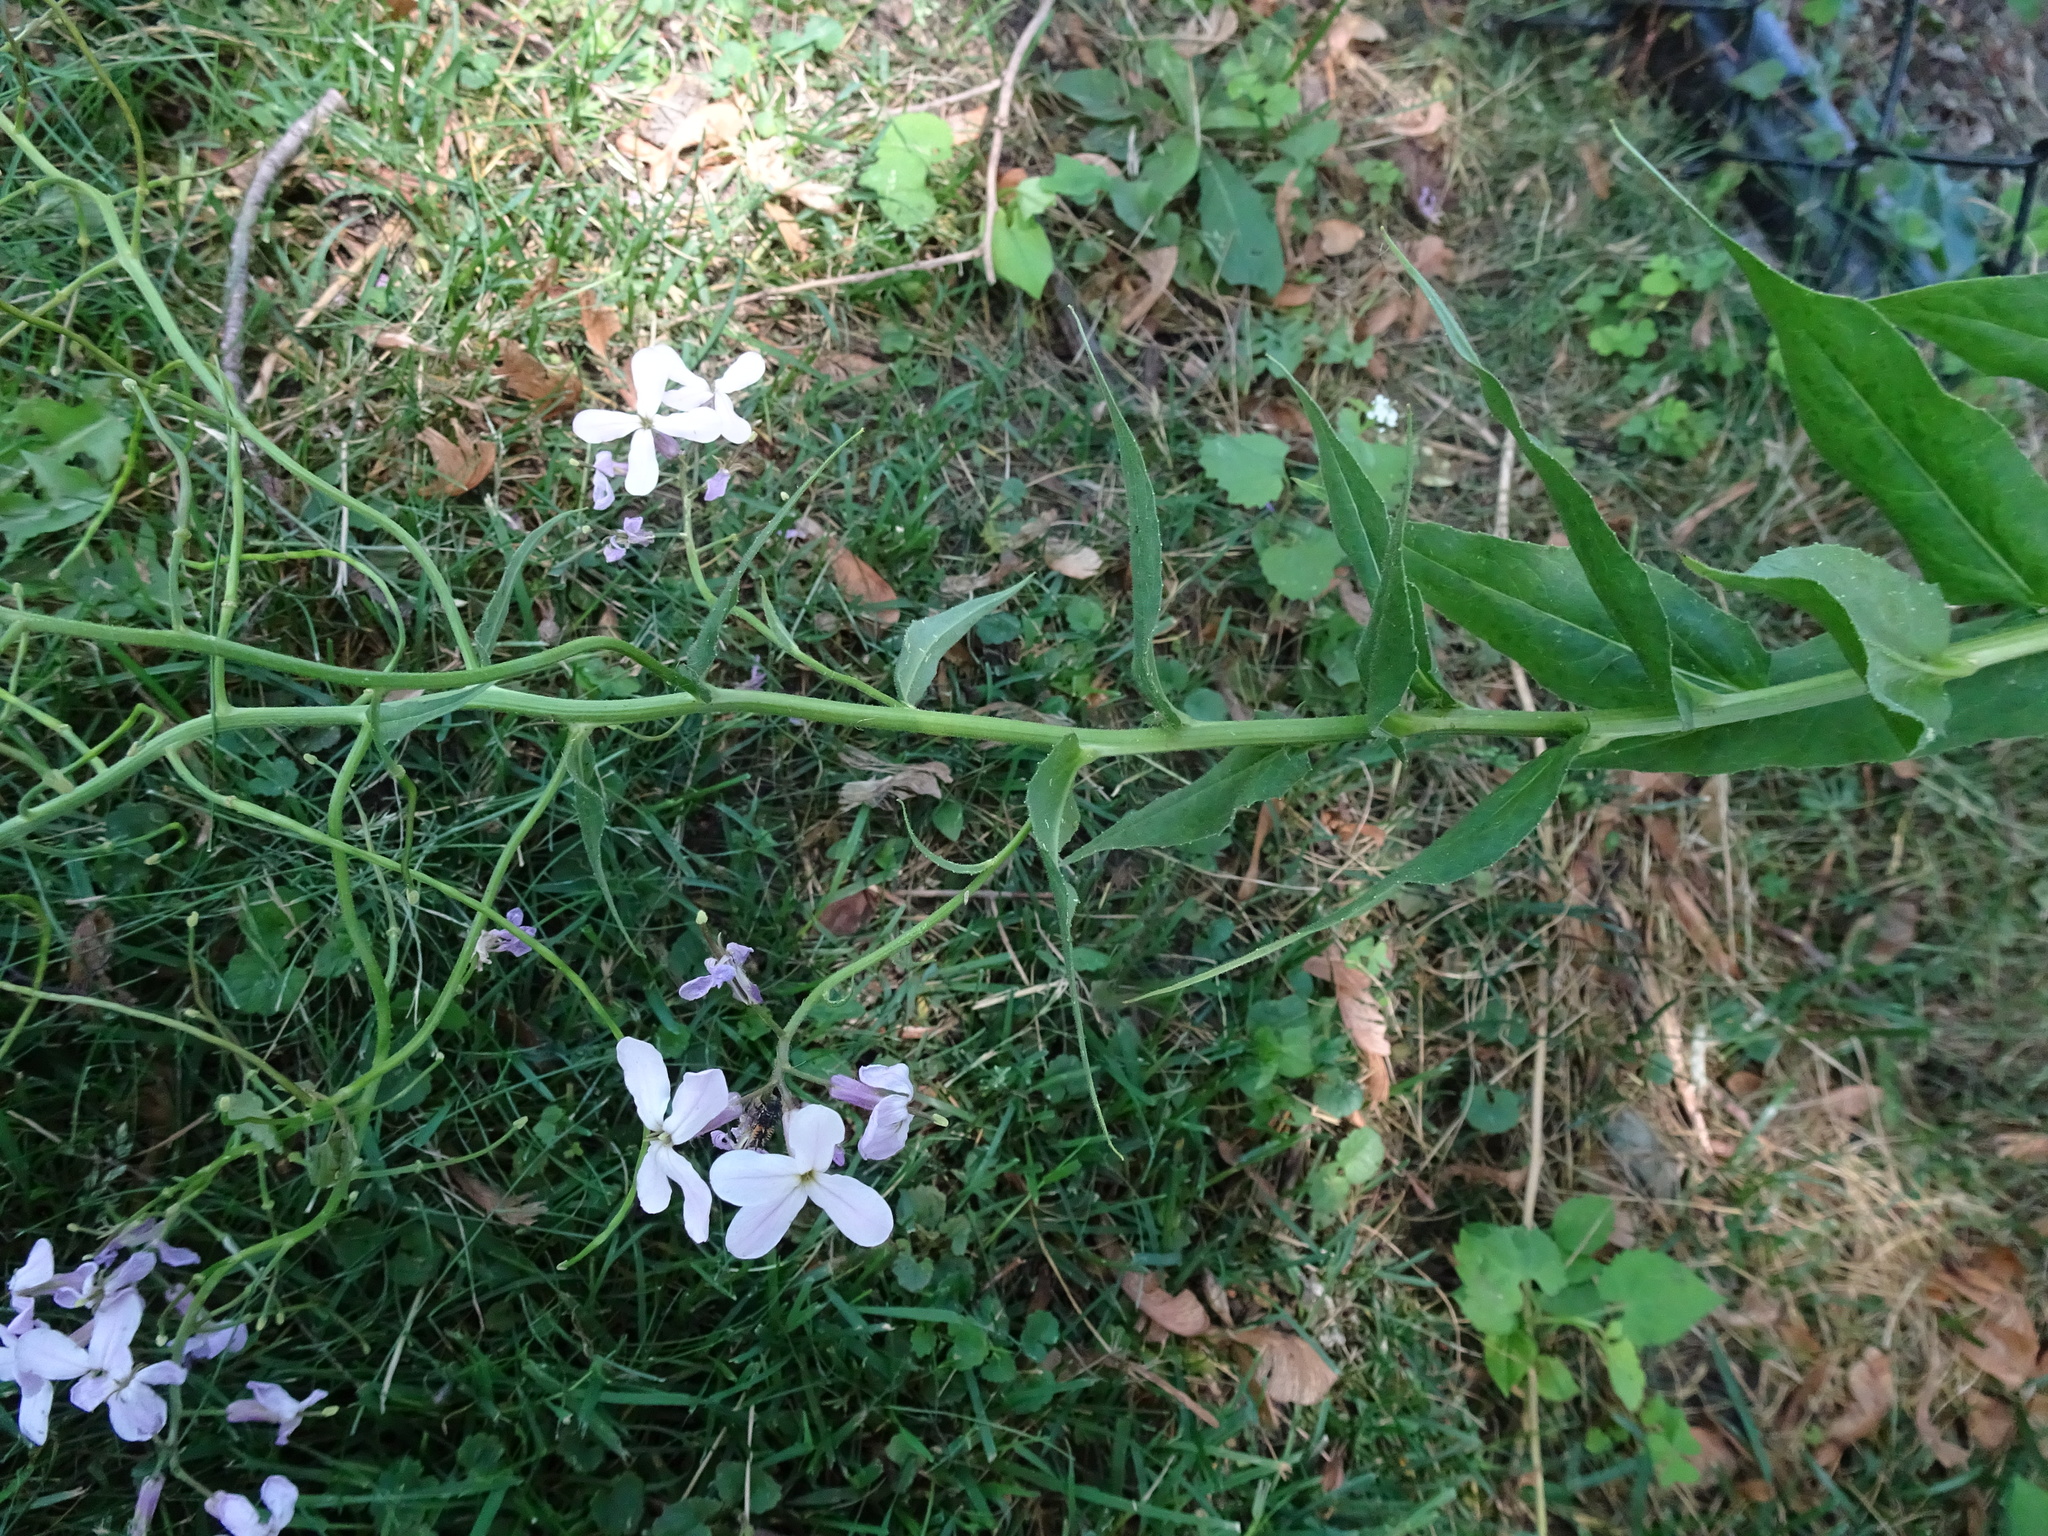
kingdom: Plantae
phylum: Tracheophyta
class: Magnoliopsida
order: Brassicales
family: Brassicaceae
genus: Hesperis
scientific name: Hesperis matronalis
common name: Dame's-violet
